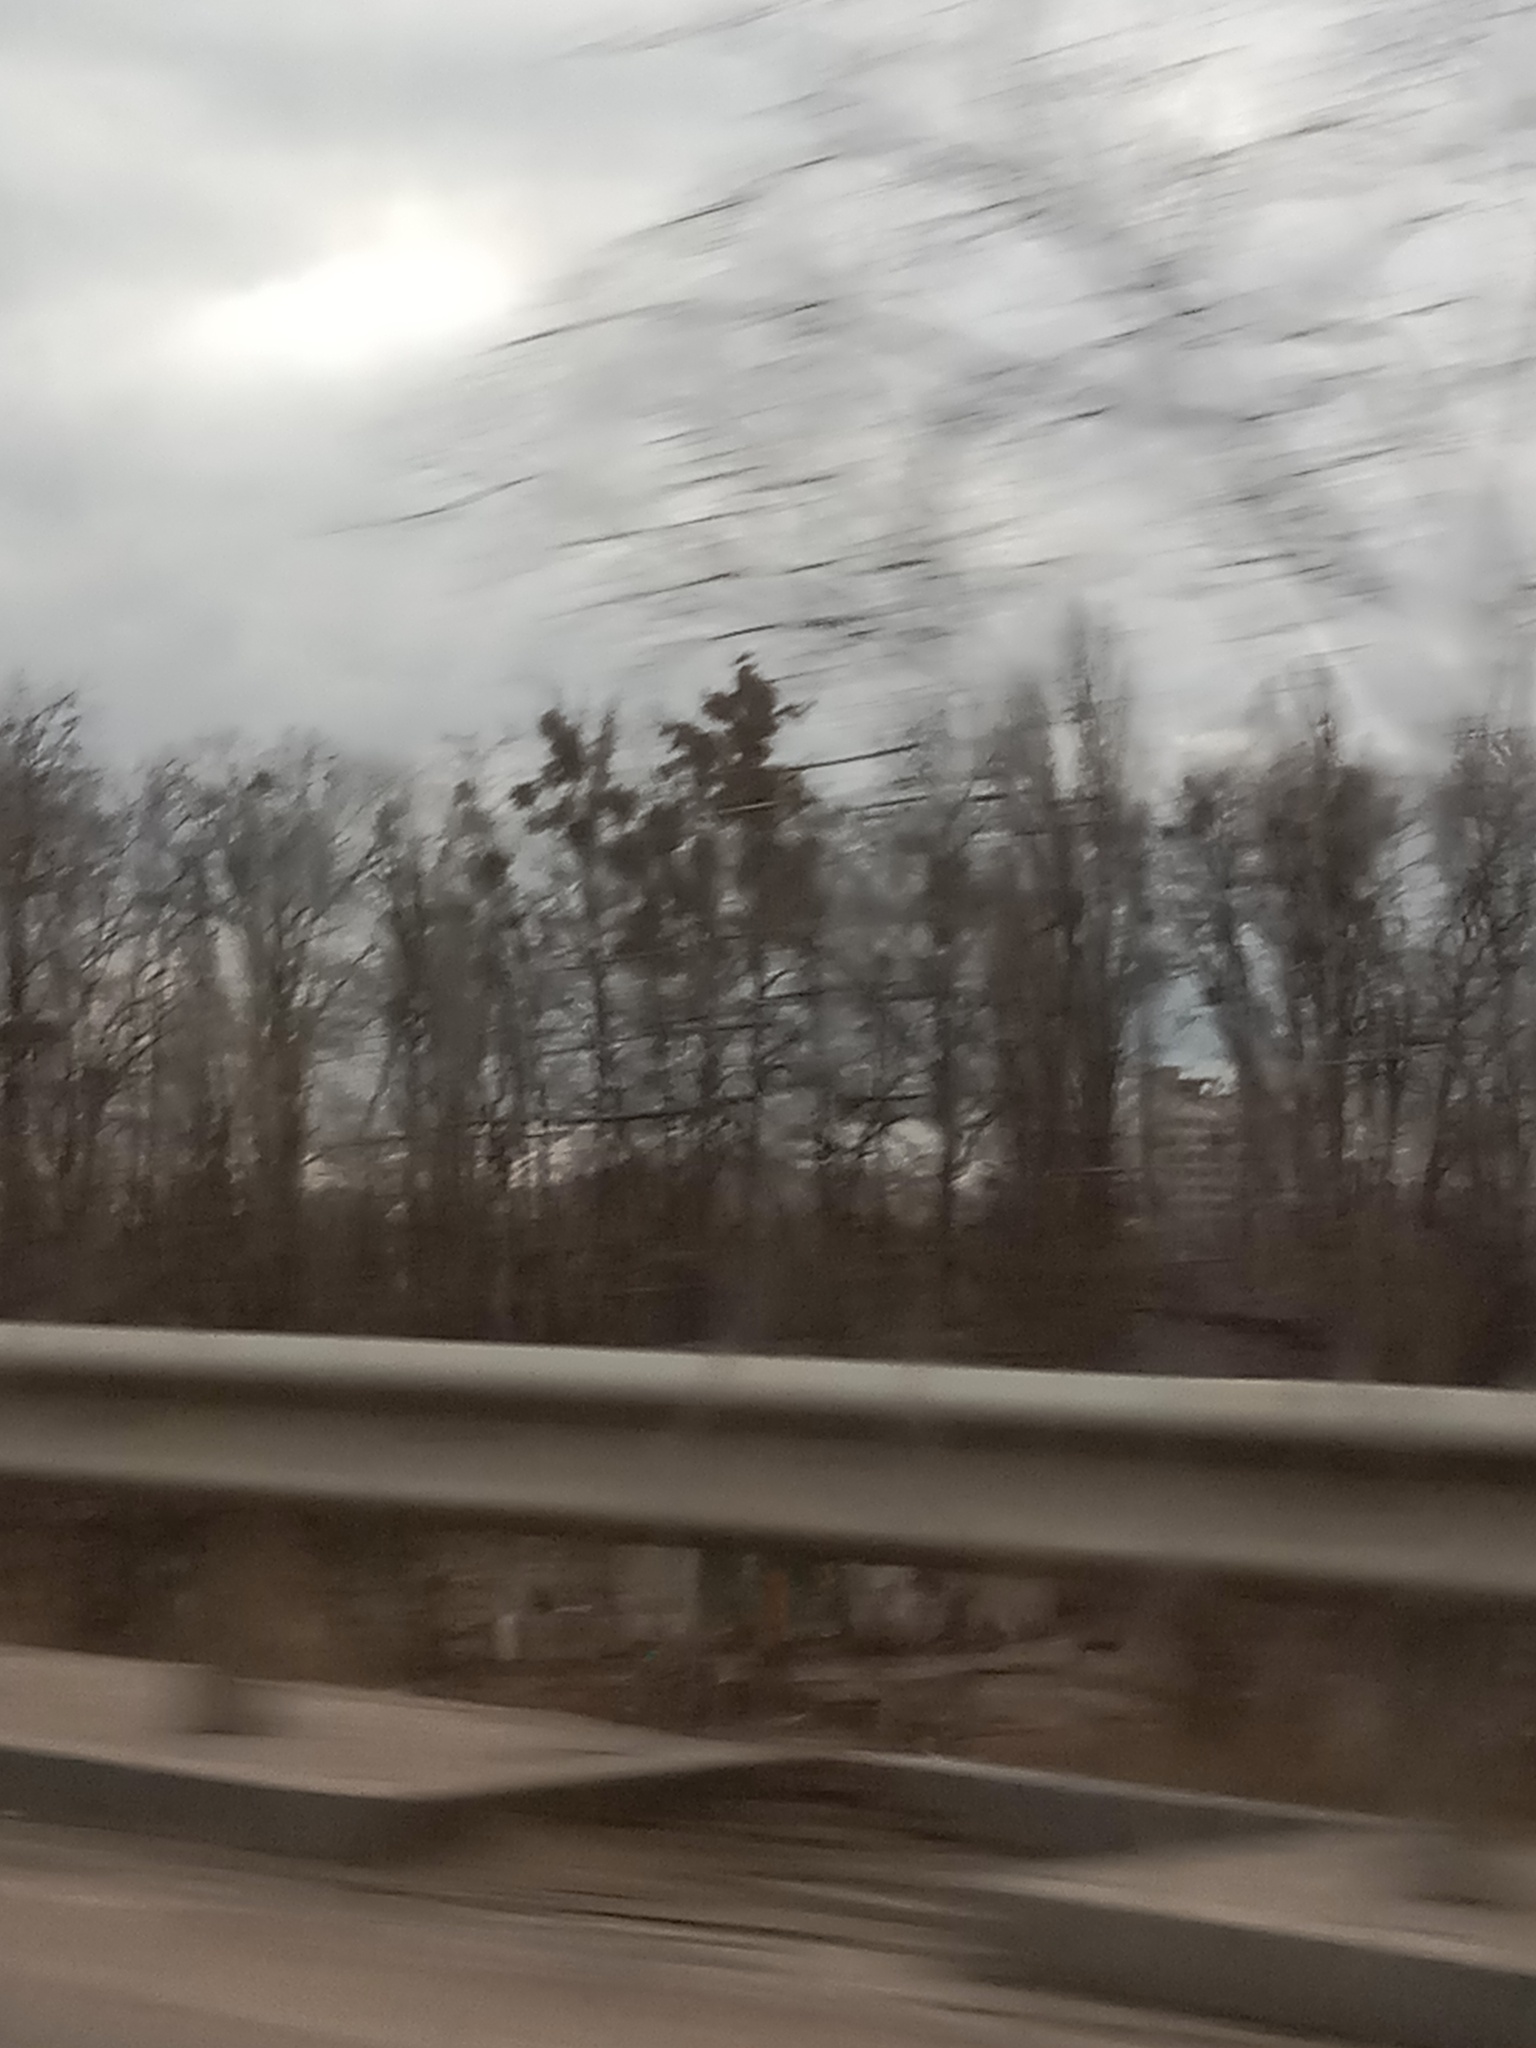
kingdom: Plantae
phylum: Tracheophyta
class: Magnoliopsida
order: Santalales
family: Viscaceae
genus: Viscum
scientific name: Viscum album
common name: Mistletoe
